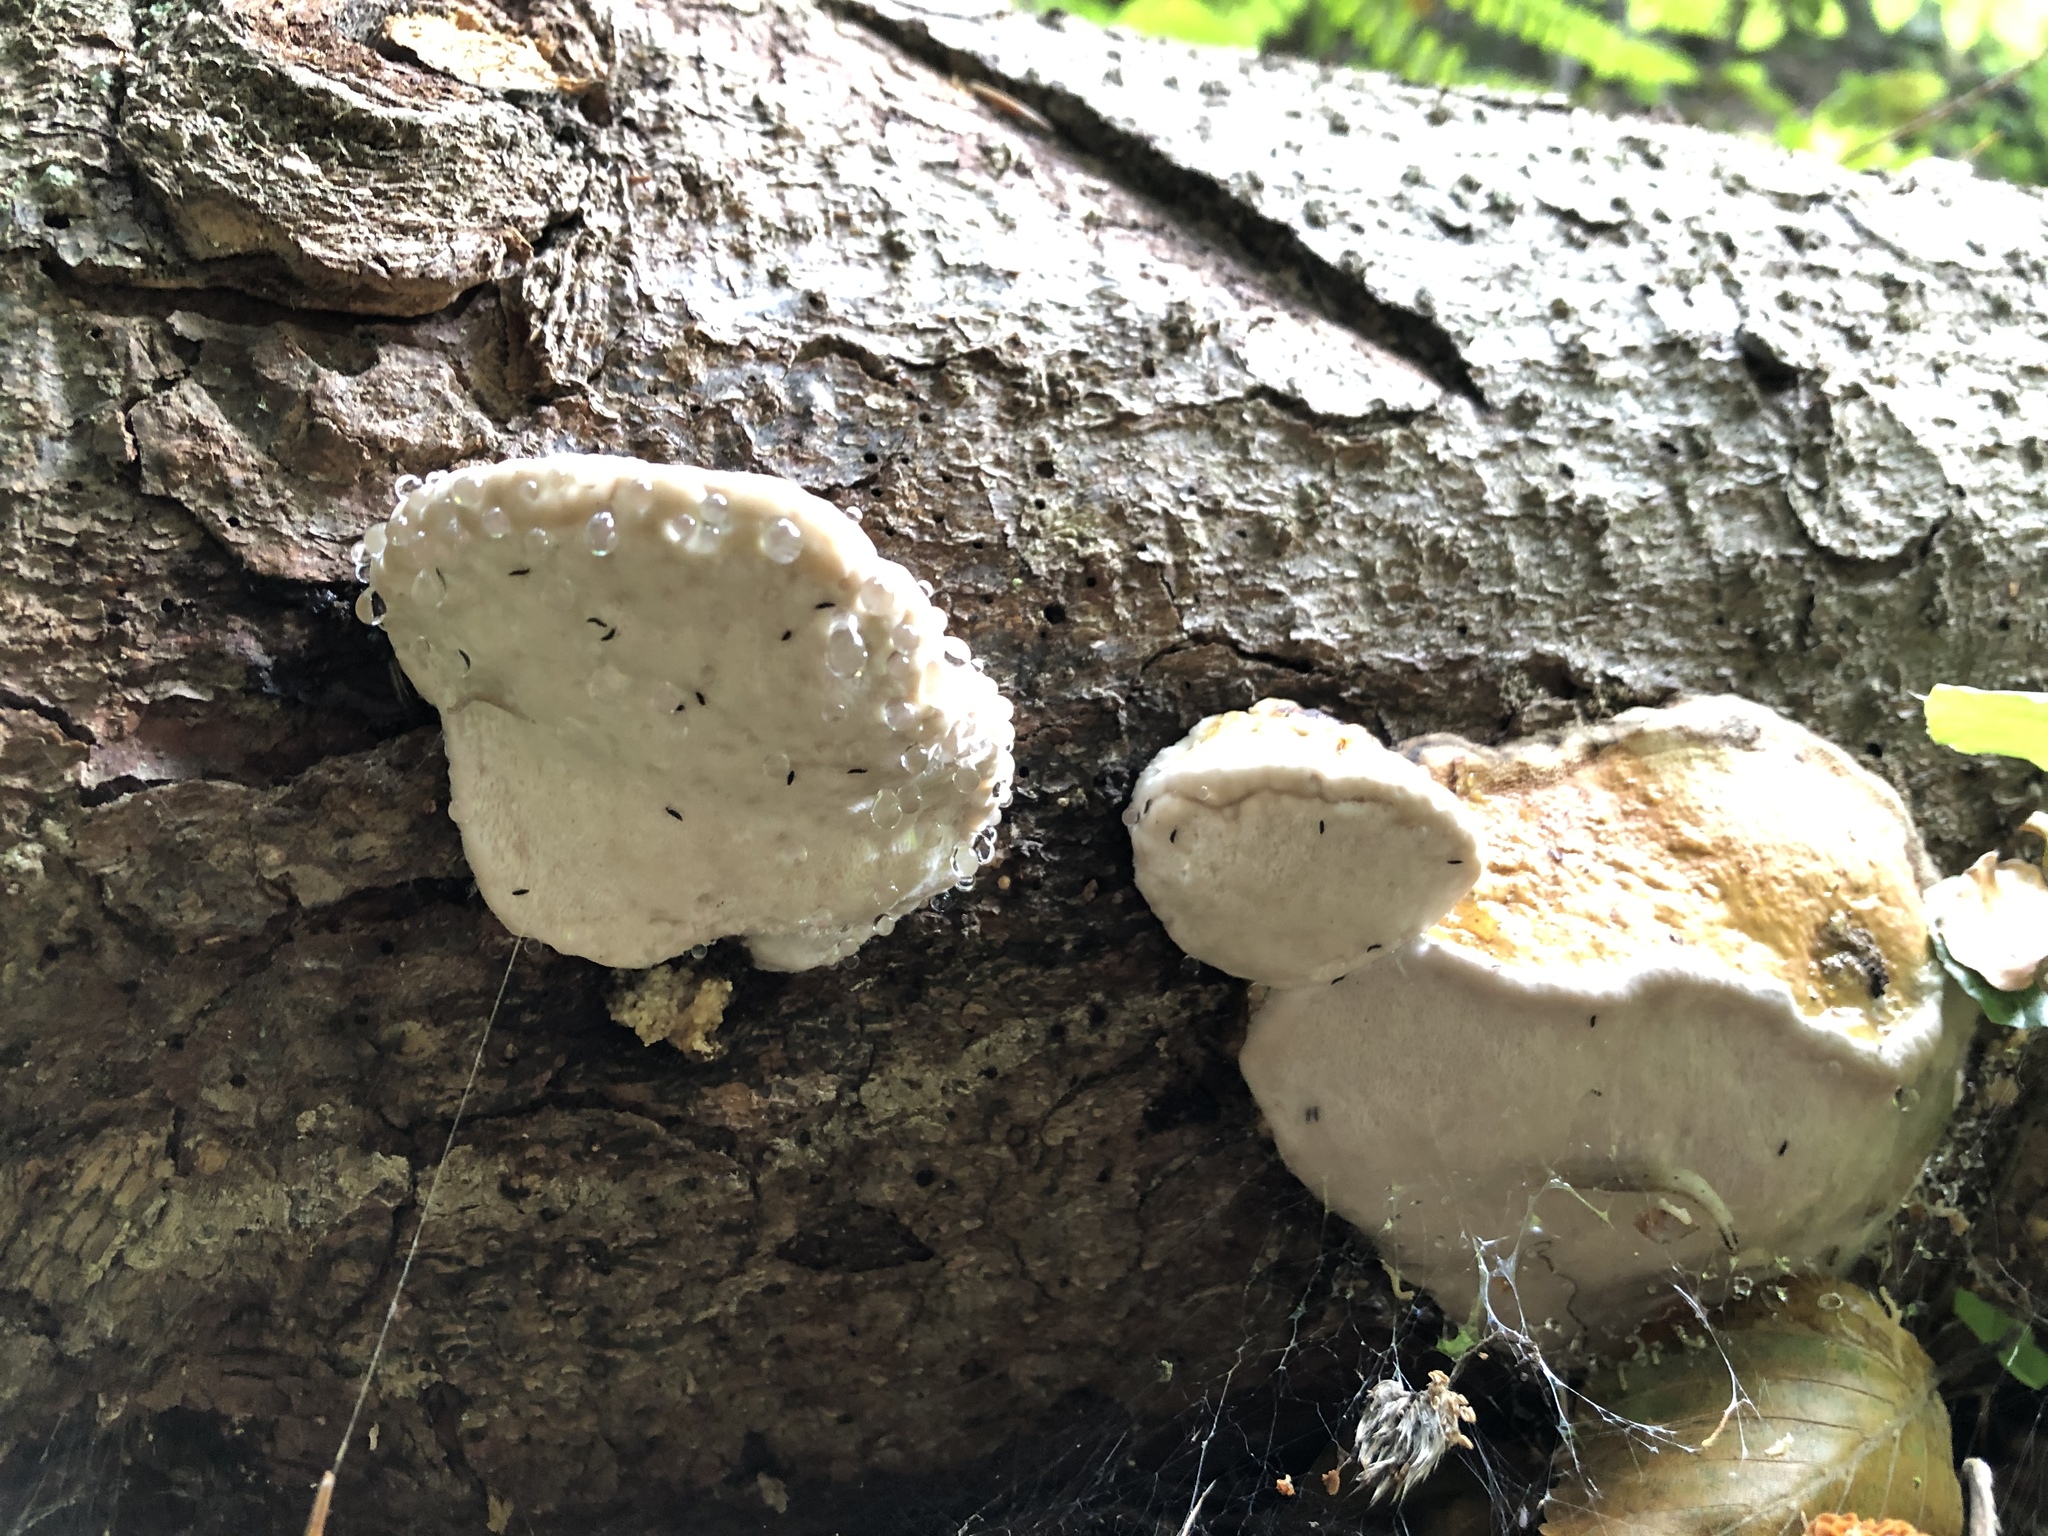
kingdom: Fungi
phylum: Basidiomycota
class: Agaricomycetes
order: Polyporales
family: Fomitopsidaceae
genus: Fomitopsis
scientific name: Fomitopsis pinicola
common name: Red-belted bracket
